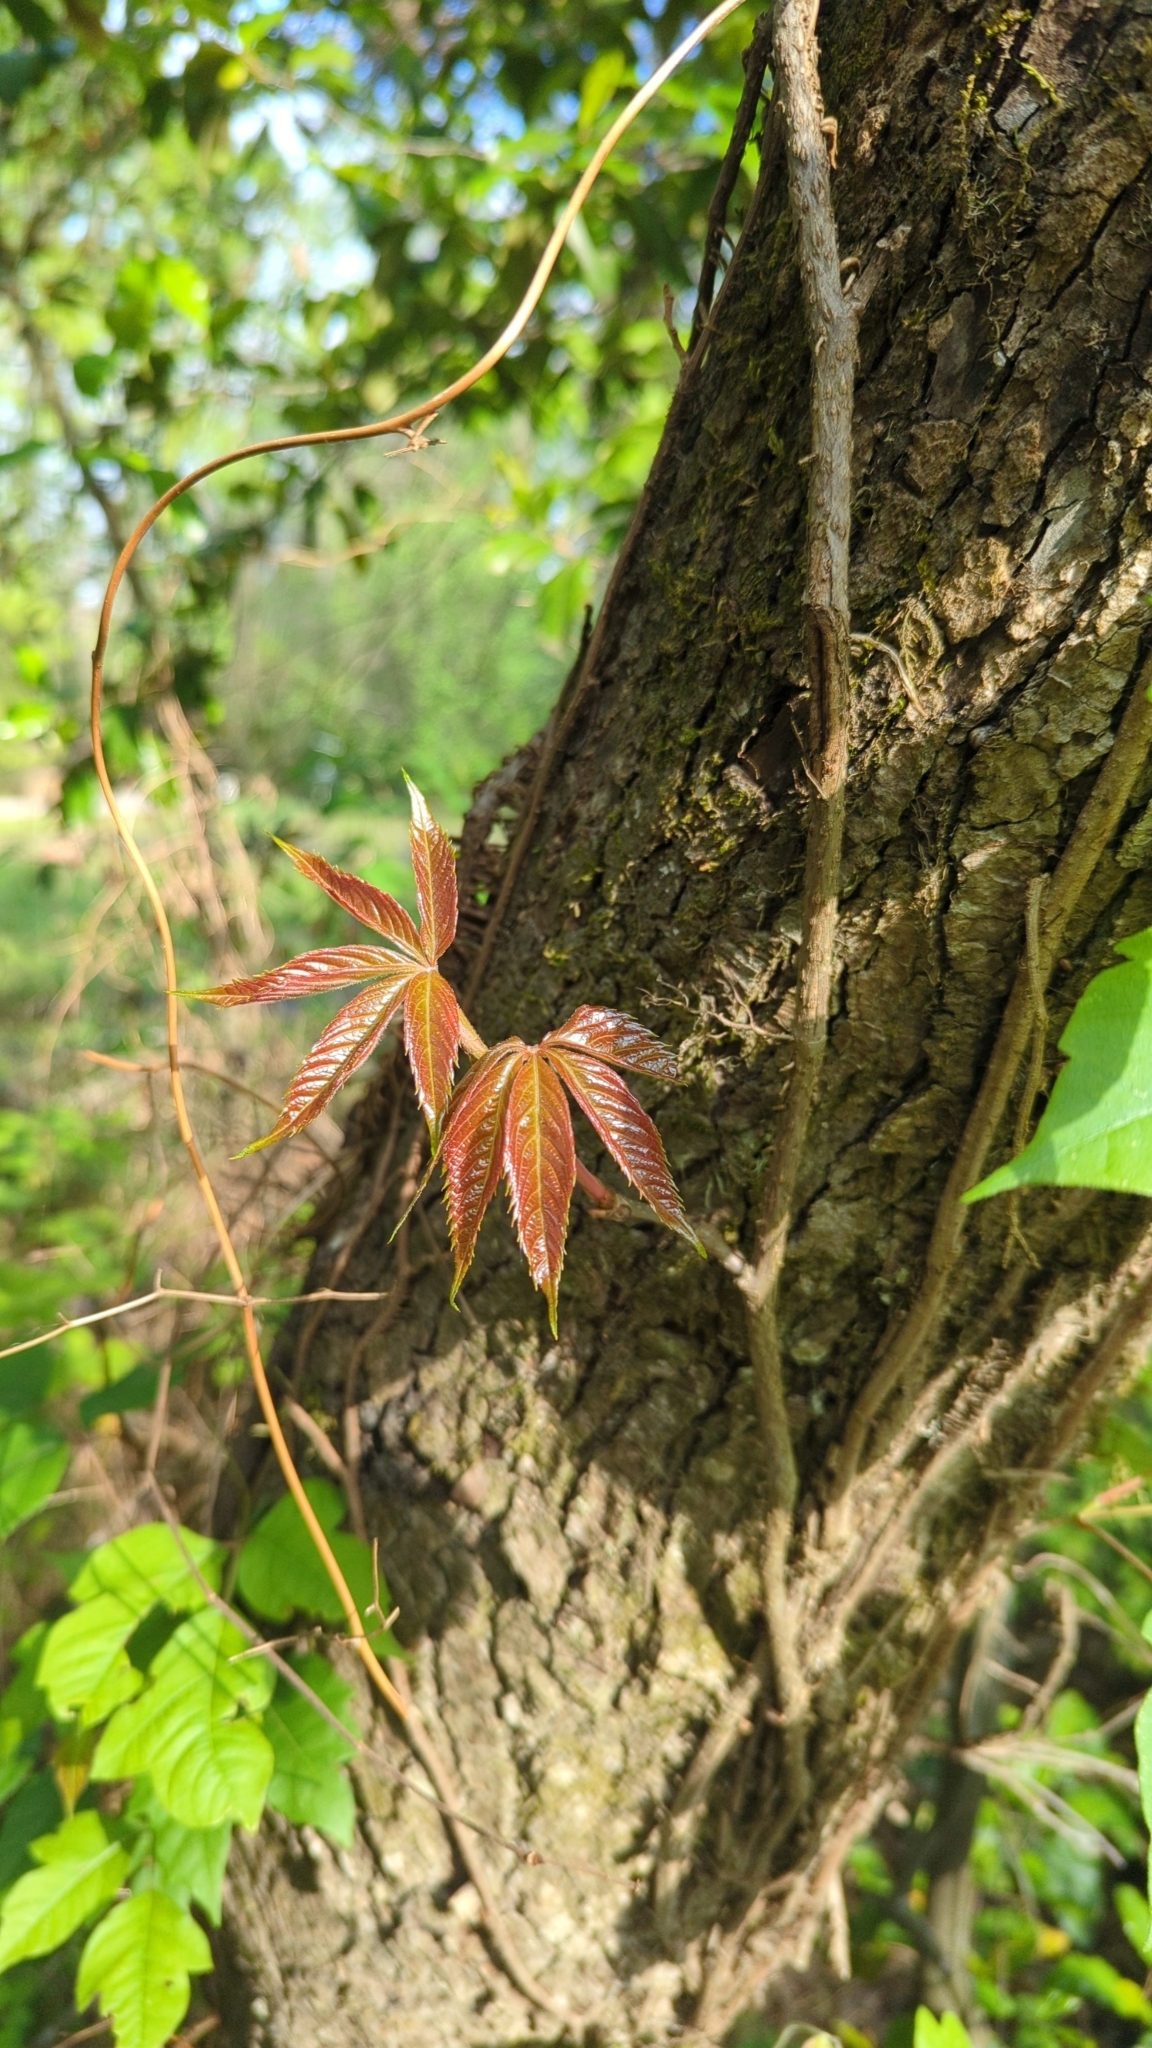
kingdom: Plantae
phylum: Tracheophyta
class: Magnoliopsida
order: Vitales
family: Vitaceae
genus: Parthenocissus
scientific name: Parthenocissus quinquefolia
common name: Virginia-creeper
